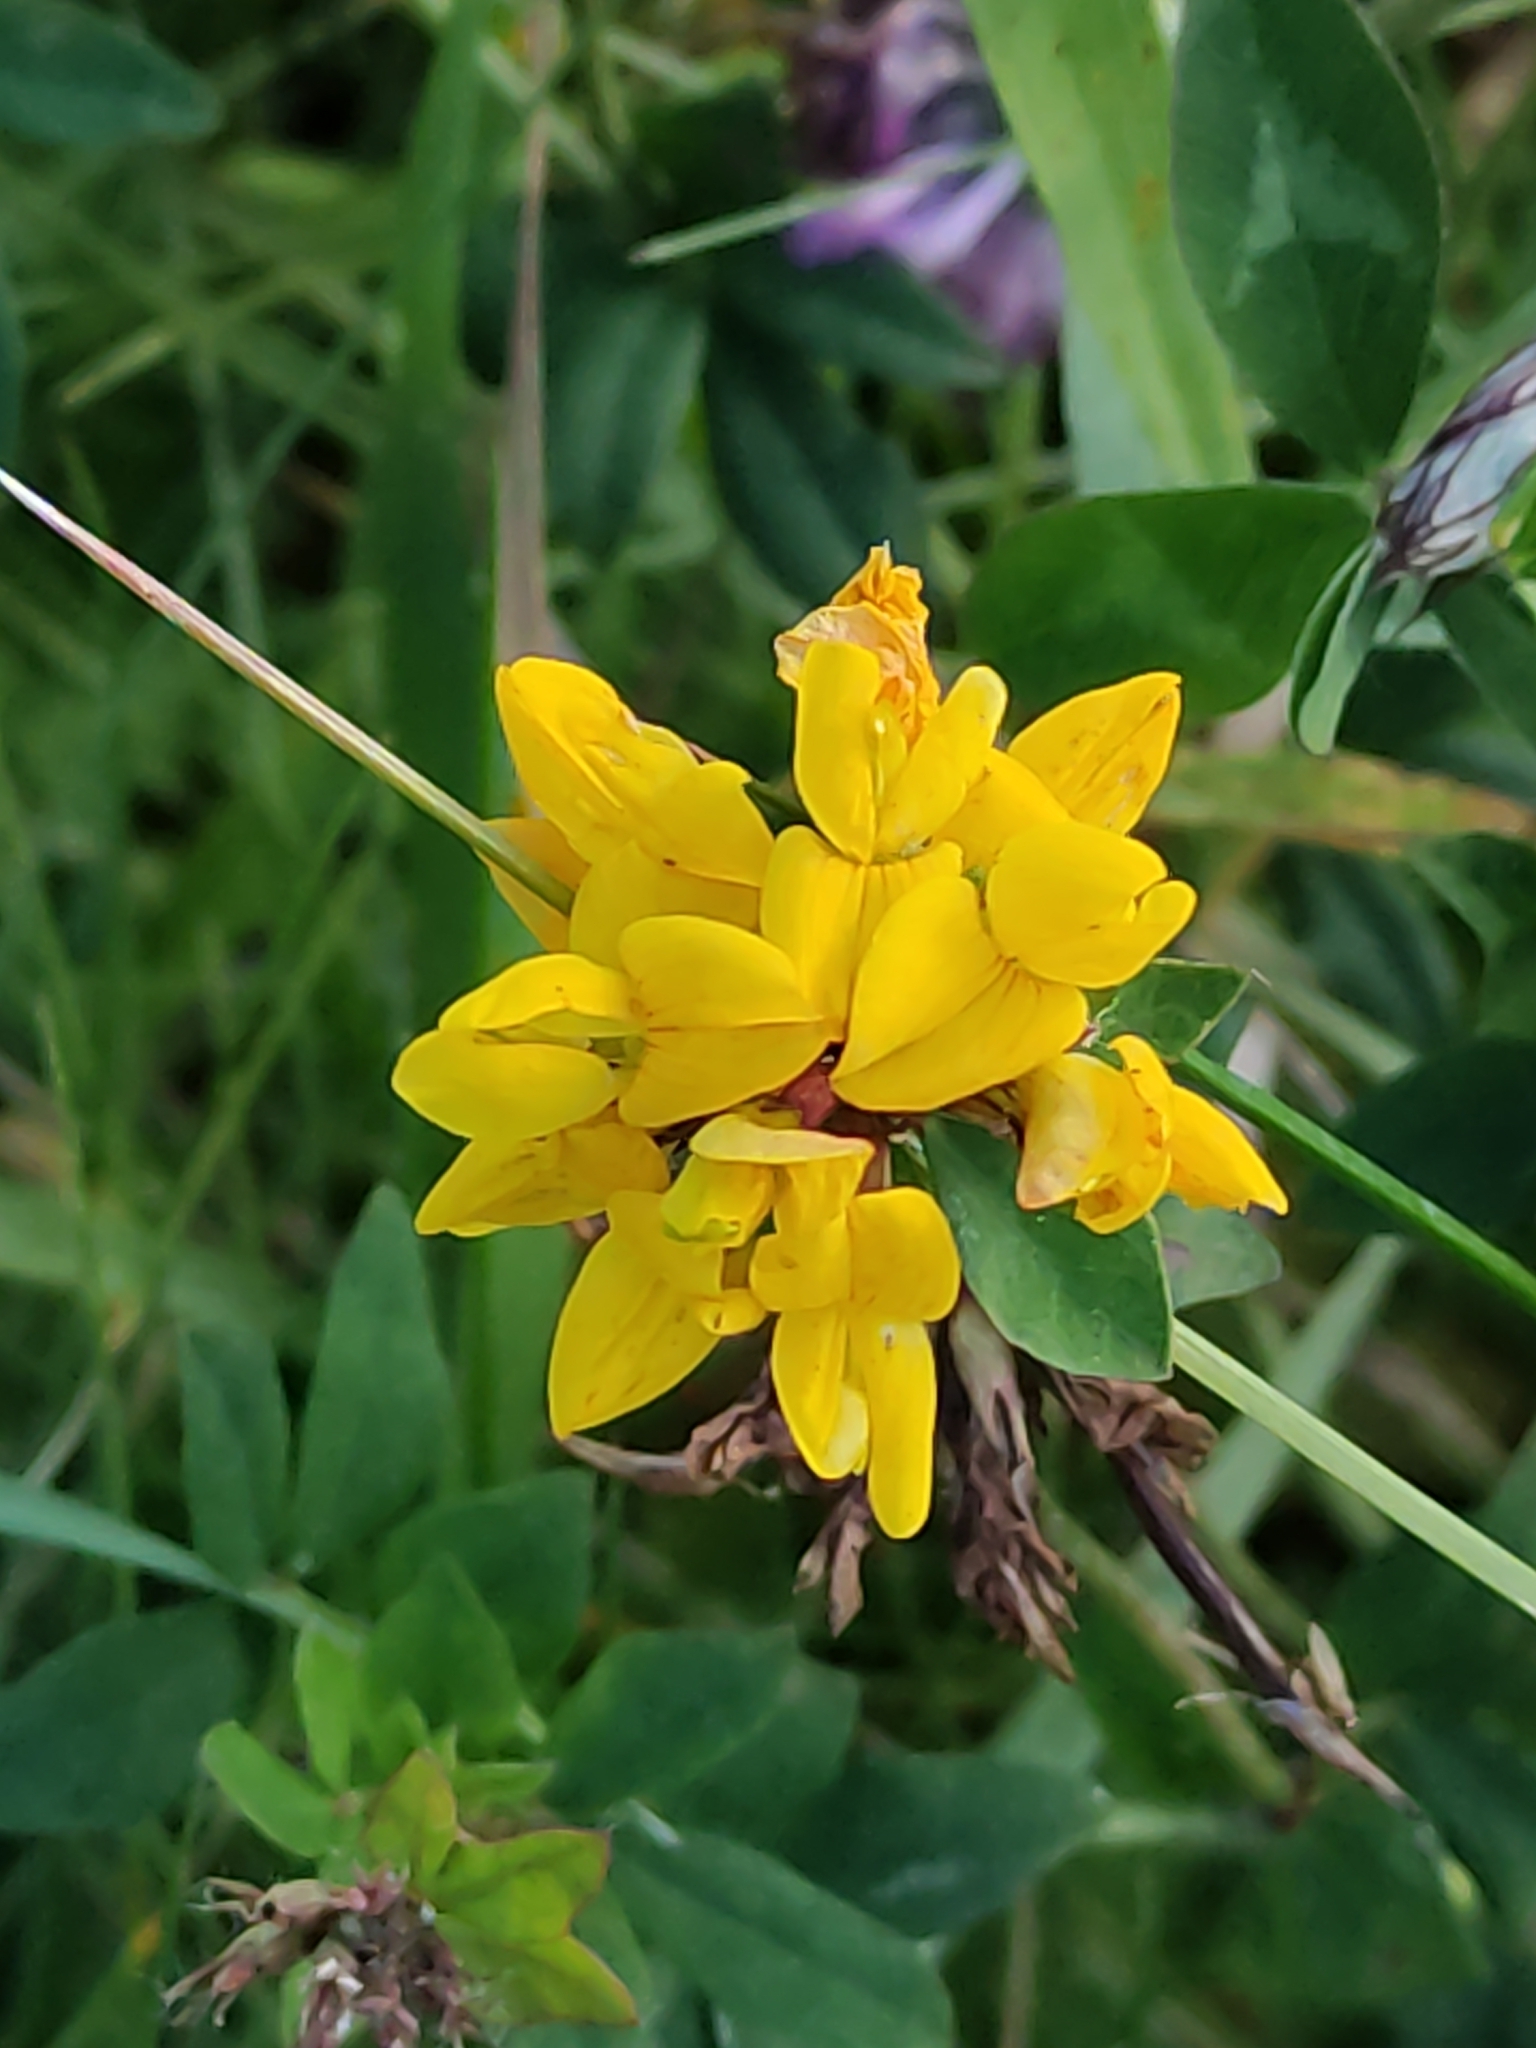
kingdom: Plantae
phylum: Tracheophyta
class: Magnoliopsida
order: Fabales
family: Fabaceae
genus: Lotus
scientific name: Lotus pedunculatus
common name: Greater birdsfoot-trefoil
